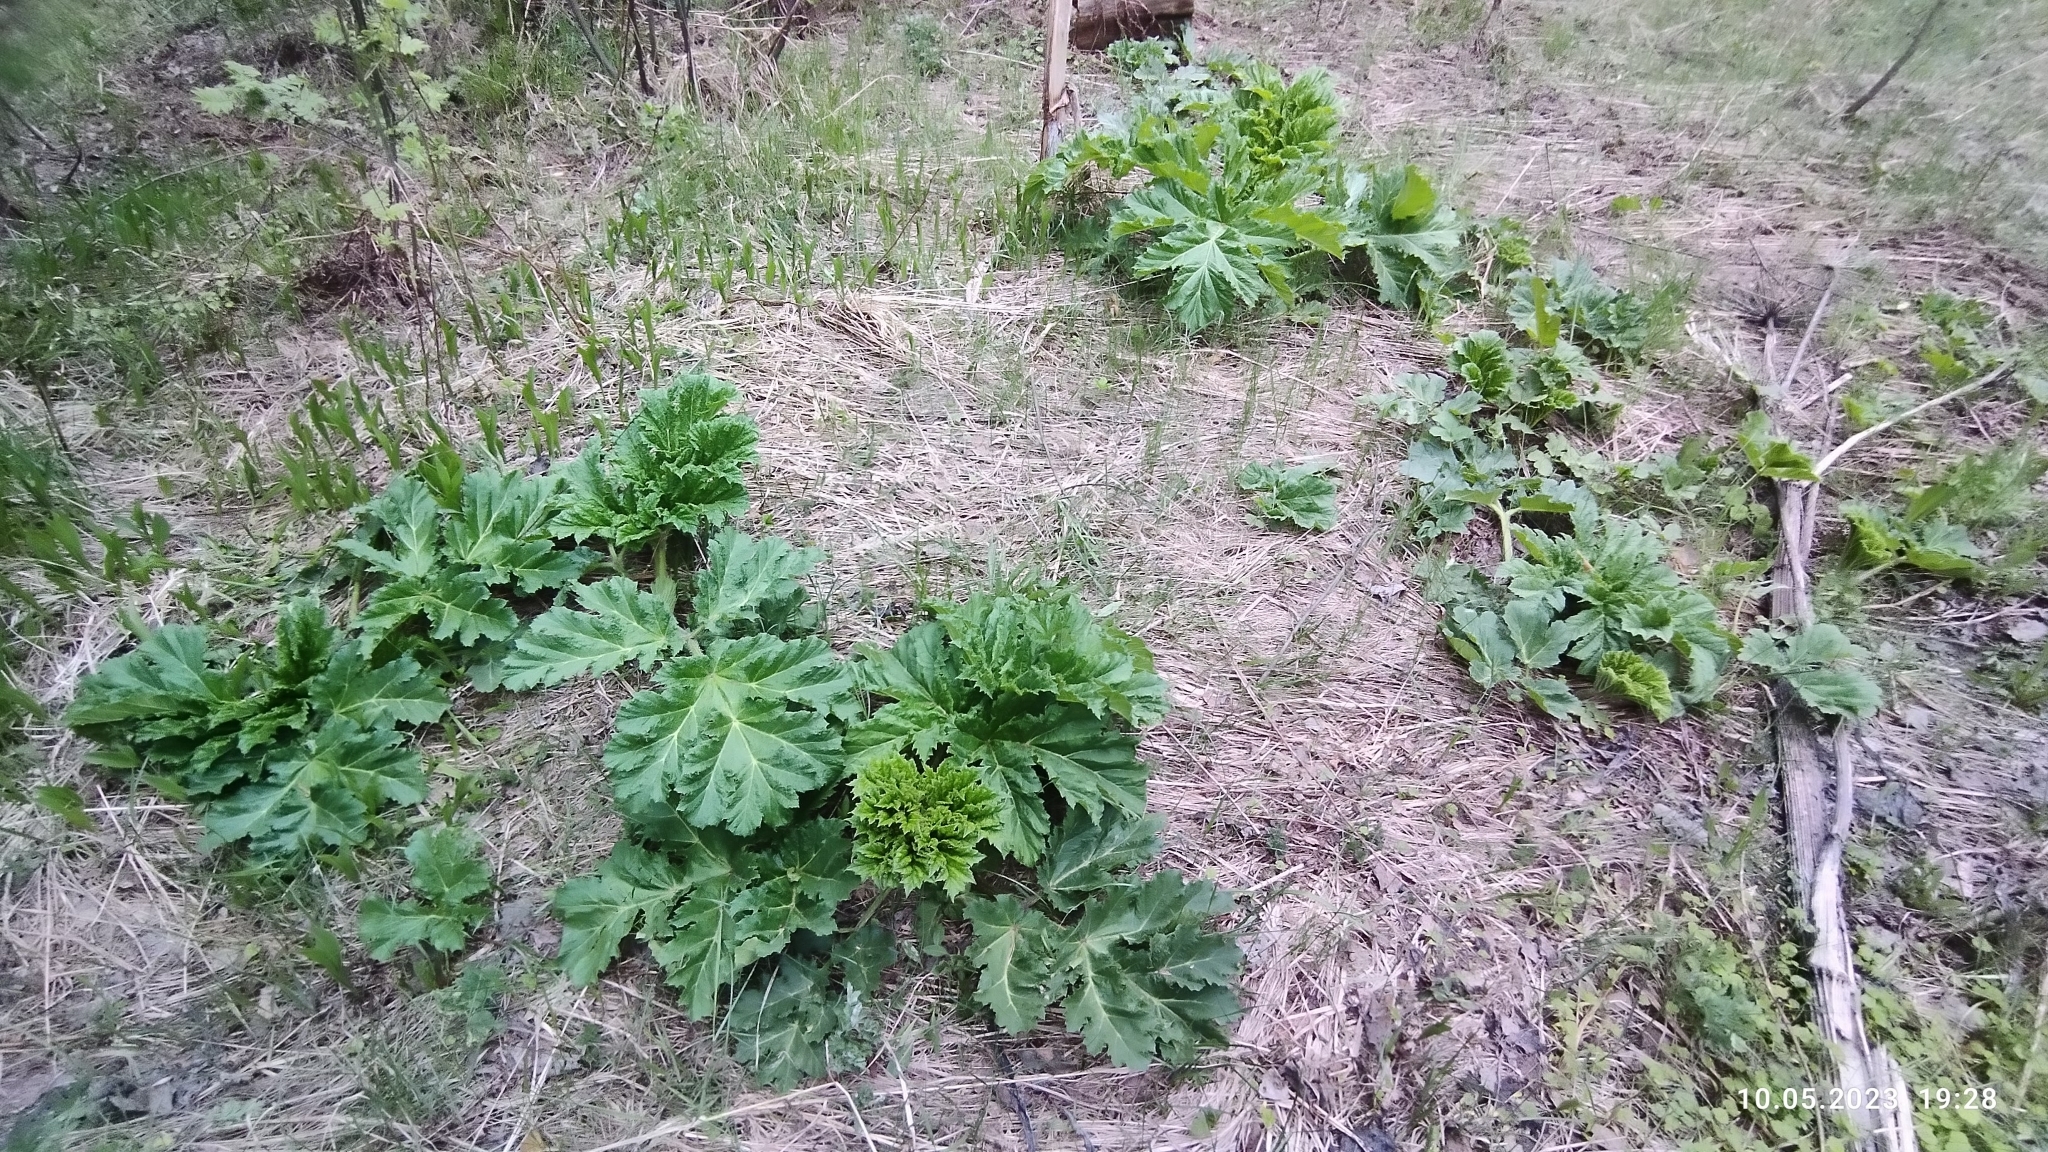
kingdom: Plantae
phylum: Tracheophyta
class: Magnoliopsida
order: Apiales
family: Apiaceae
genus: Heracleum
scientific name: Heracleum sosnowskyi
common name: Sosnowsky's hogweed
